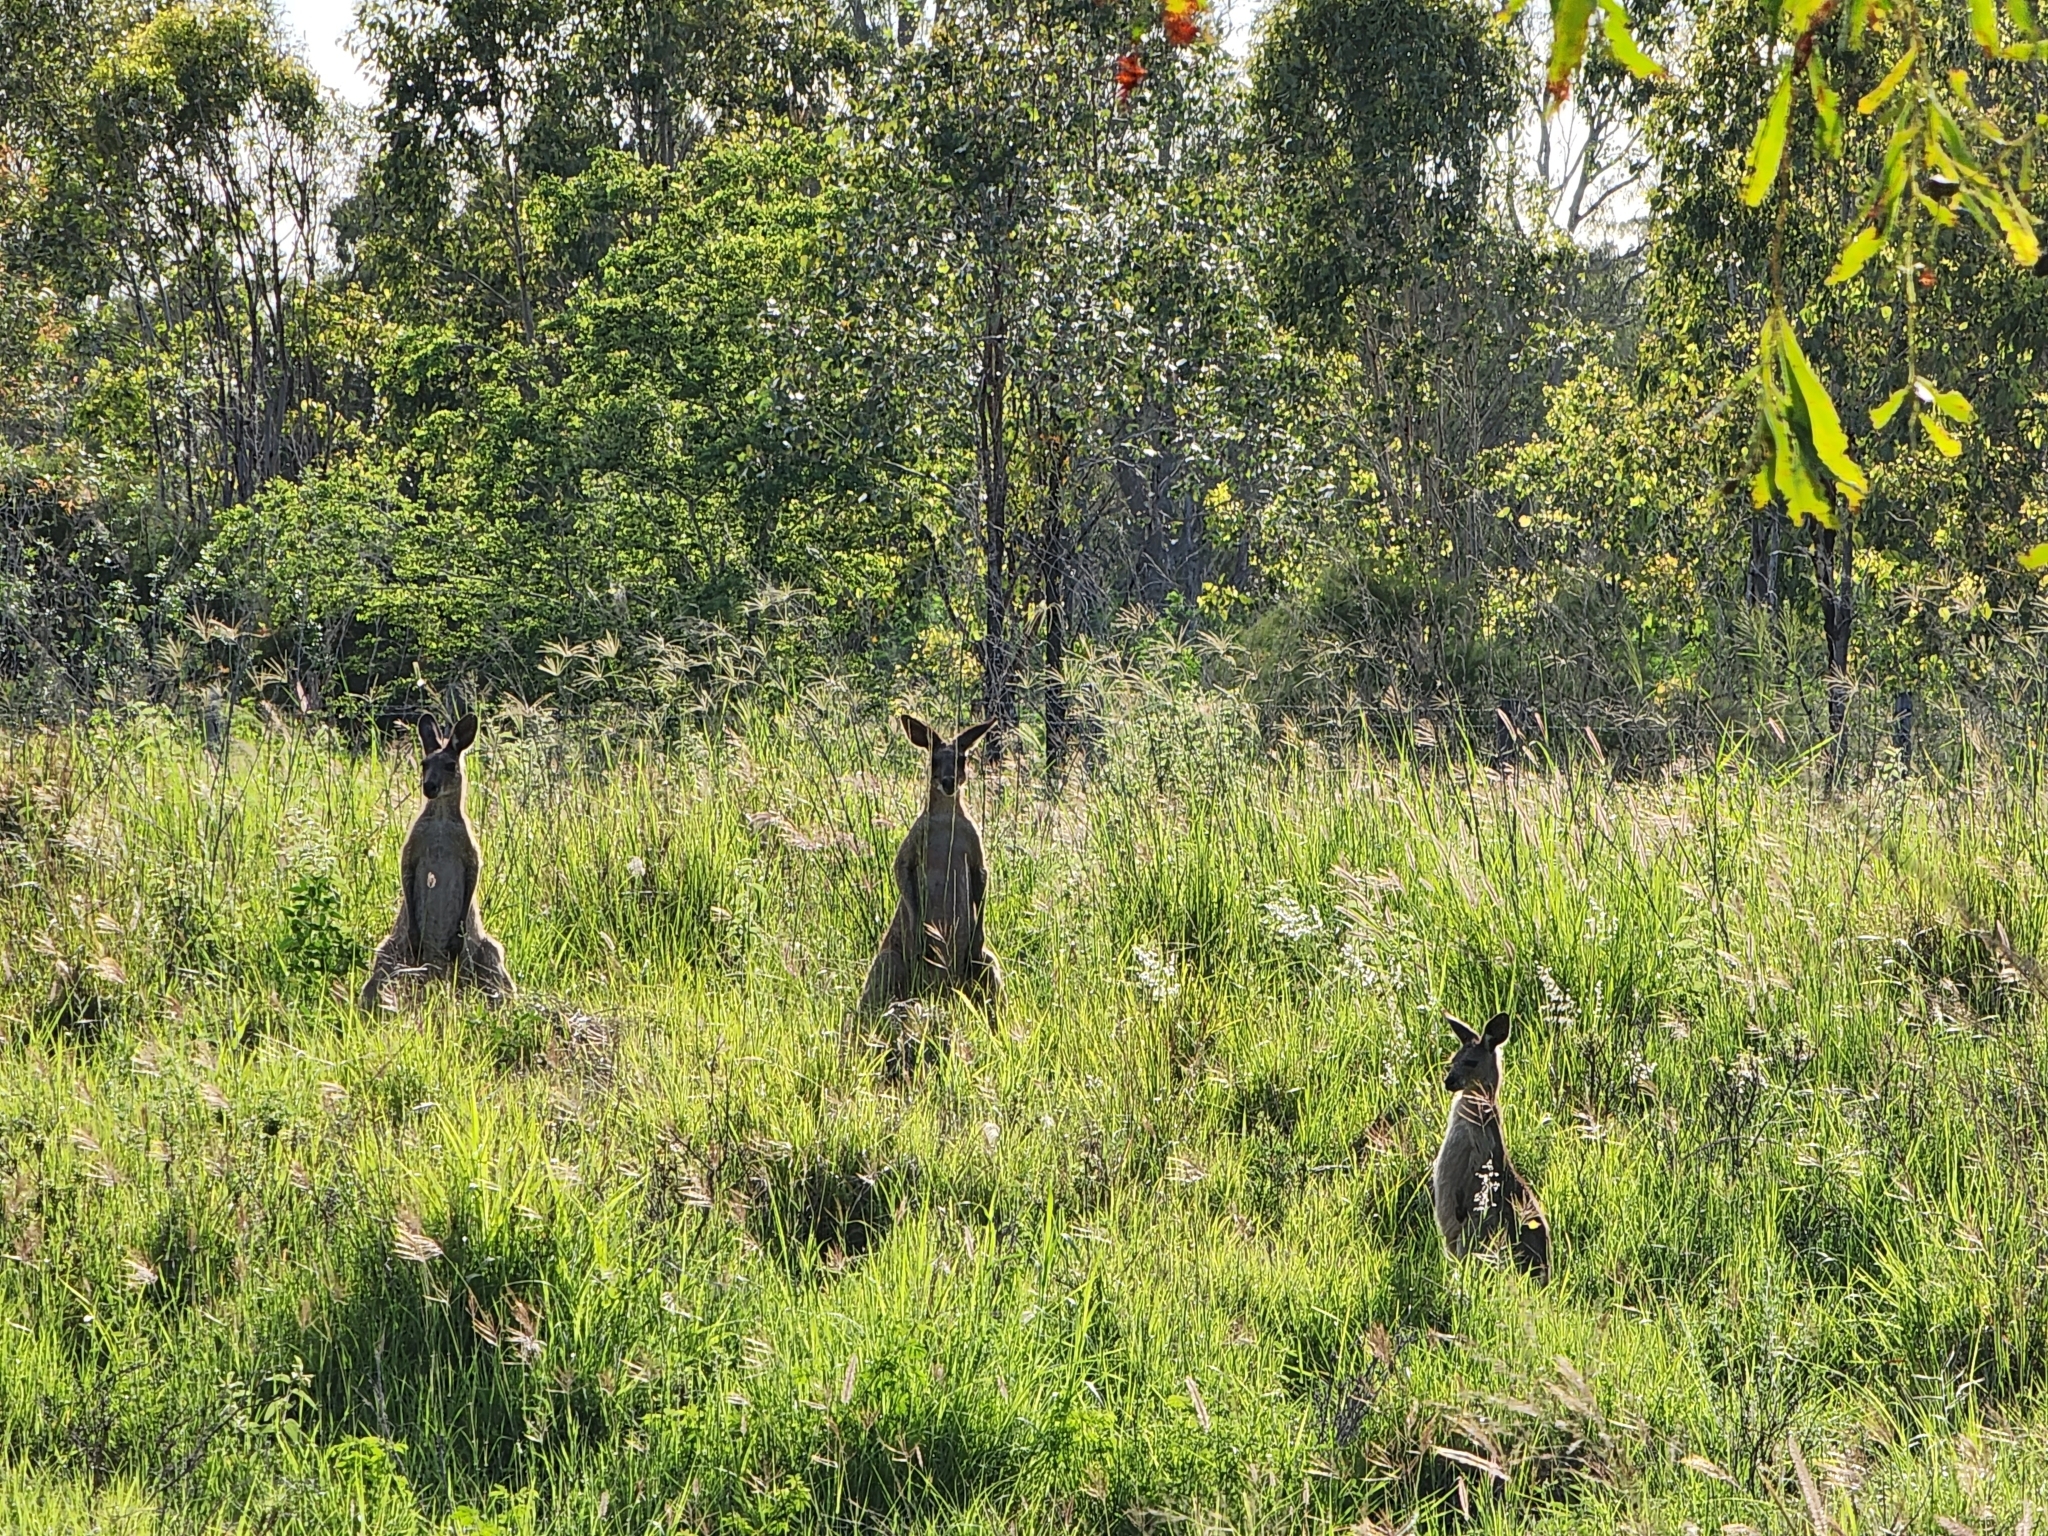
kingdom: Animalia
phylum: Chordata
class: Mammalia
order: Diprotodontia
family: Macropodidae
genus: Macropus
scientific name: Macropus giganteus
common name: Eastern grey kangaroo
